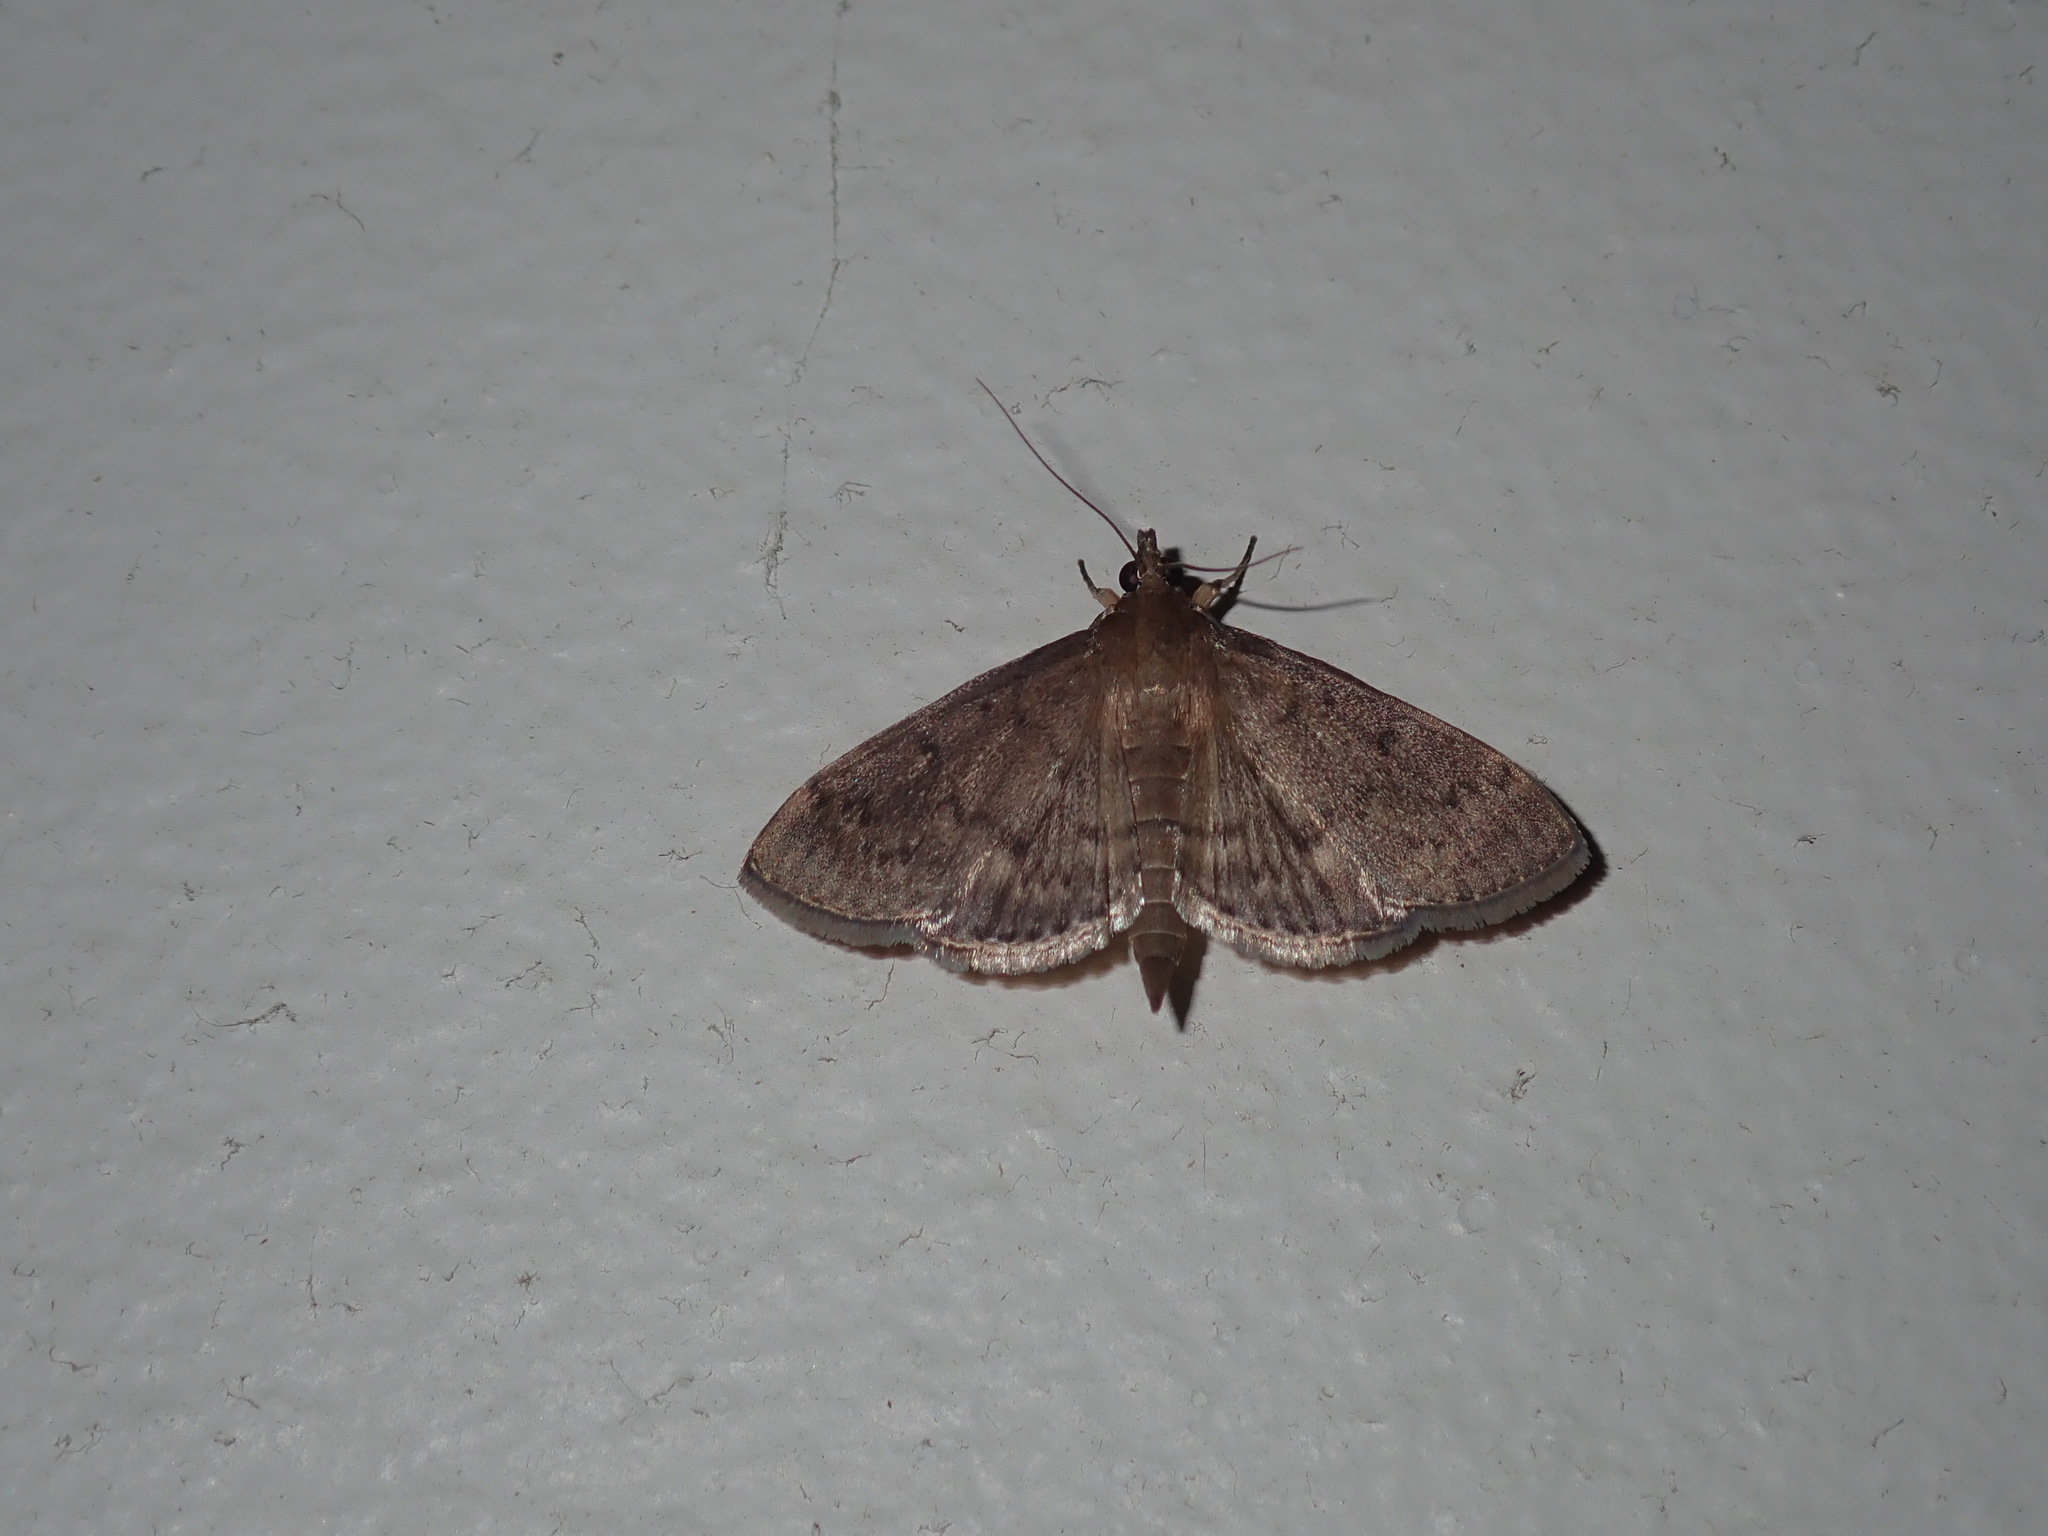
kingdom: Animalia
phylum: Arthropoda
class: Insecta
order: Lepidoptera
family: Crambidae
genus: Herpetogramma
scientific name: Herpetogramma licarsisalis
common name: Grass webworm
